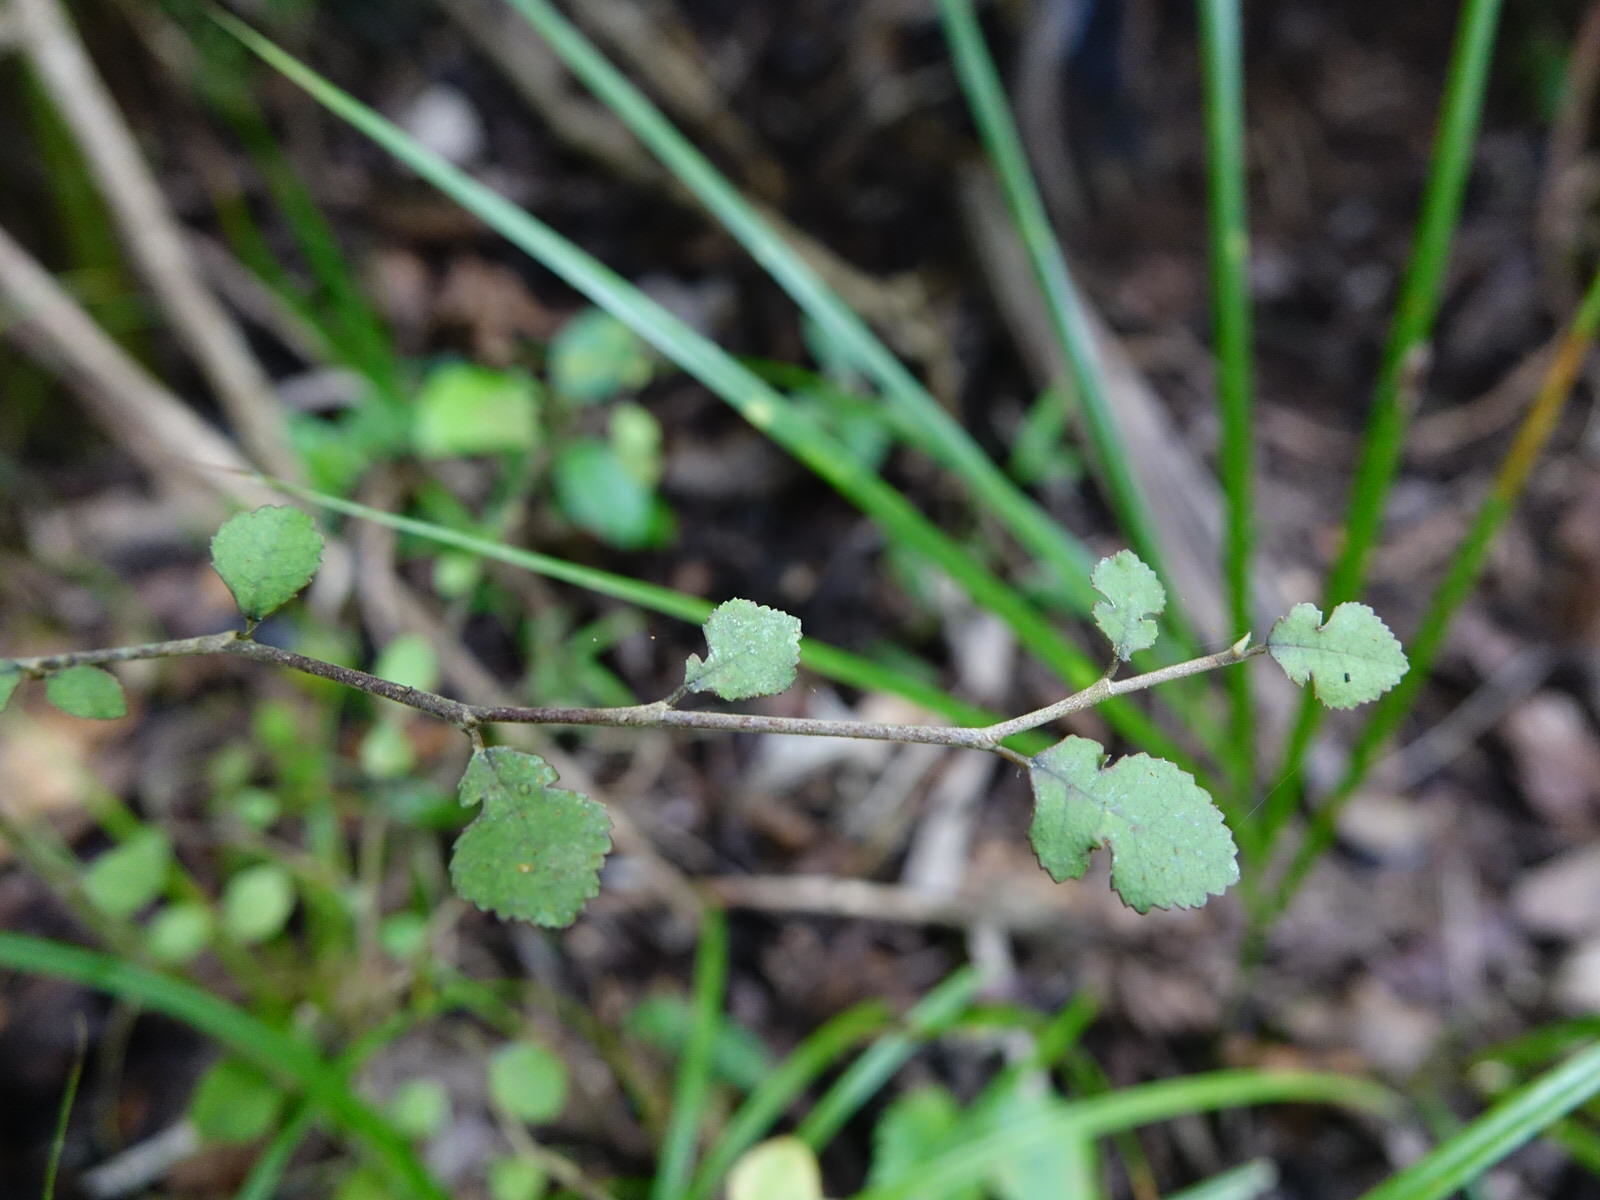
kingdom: Plantae
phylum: Tracheophyta
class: Magnoliopsida
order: Rosales
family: Moraceae
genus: Paratrophis
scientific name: Paratrophis microphylla
